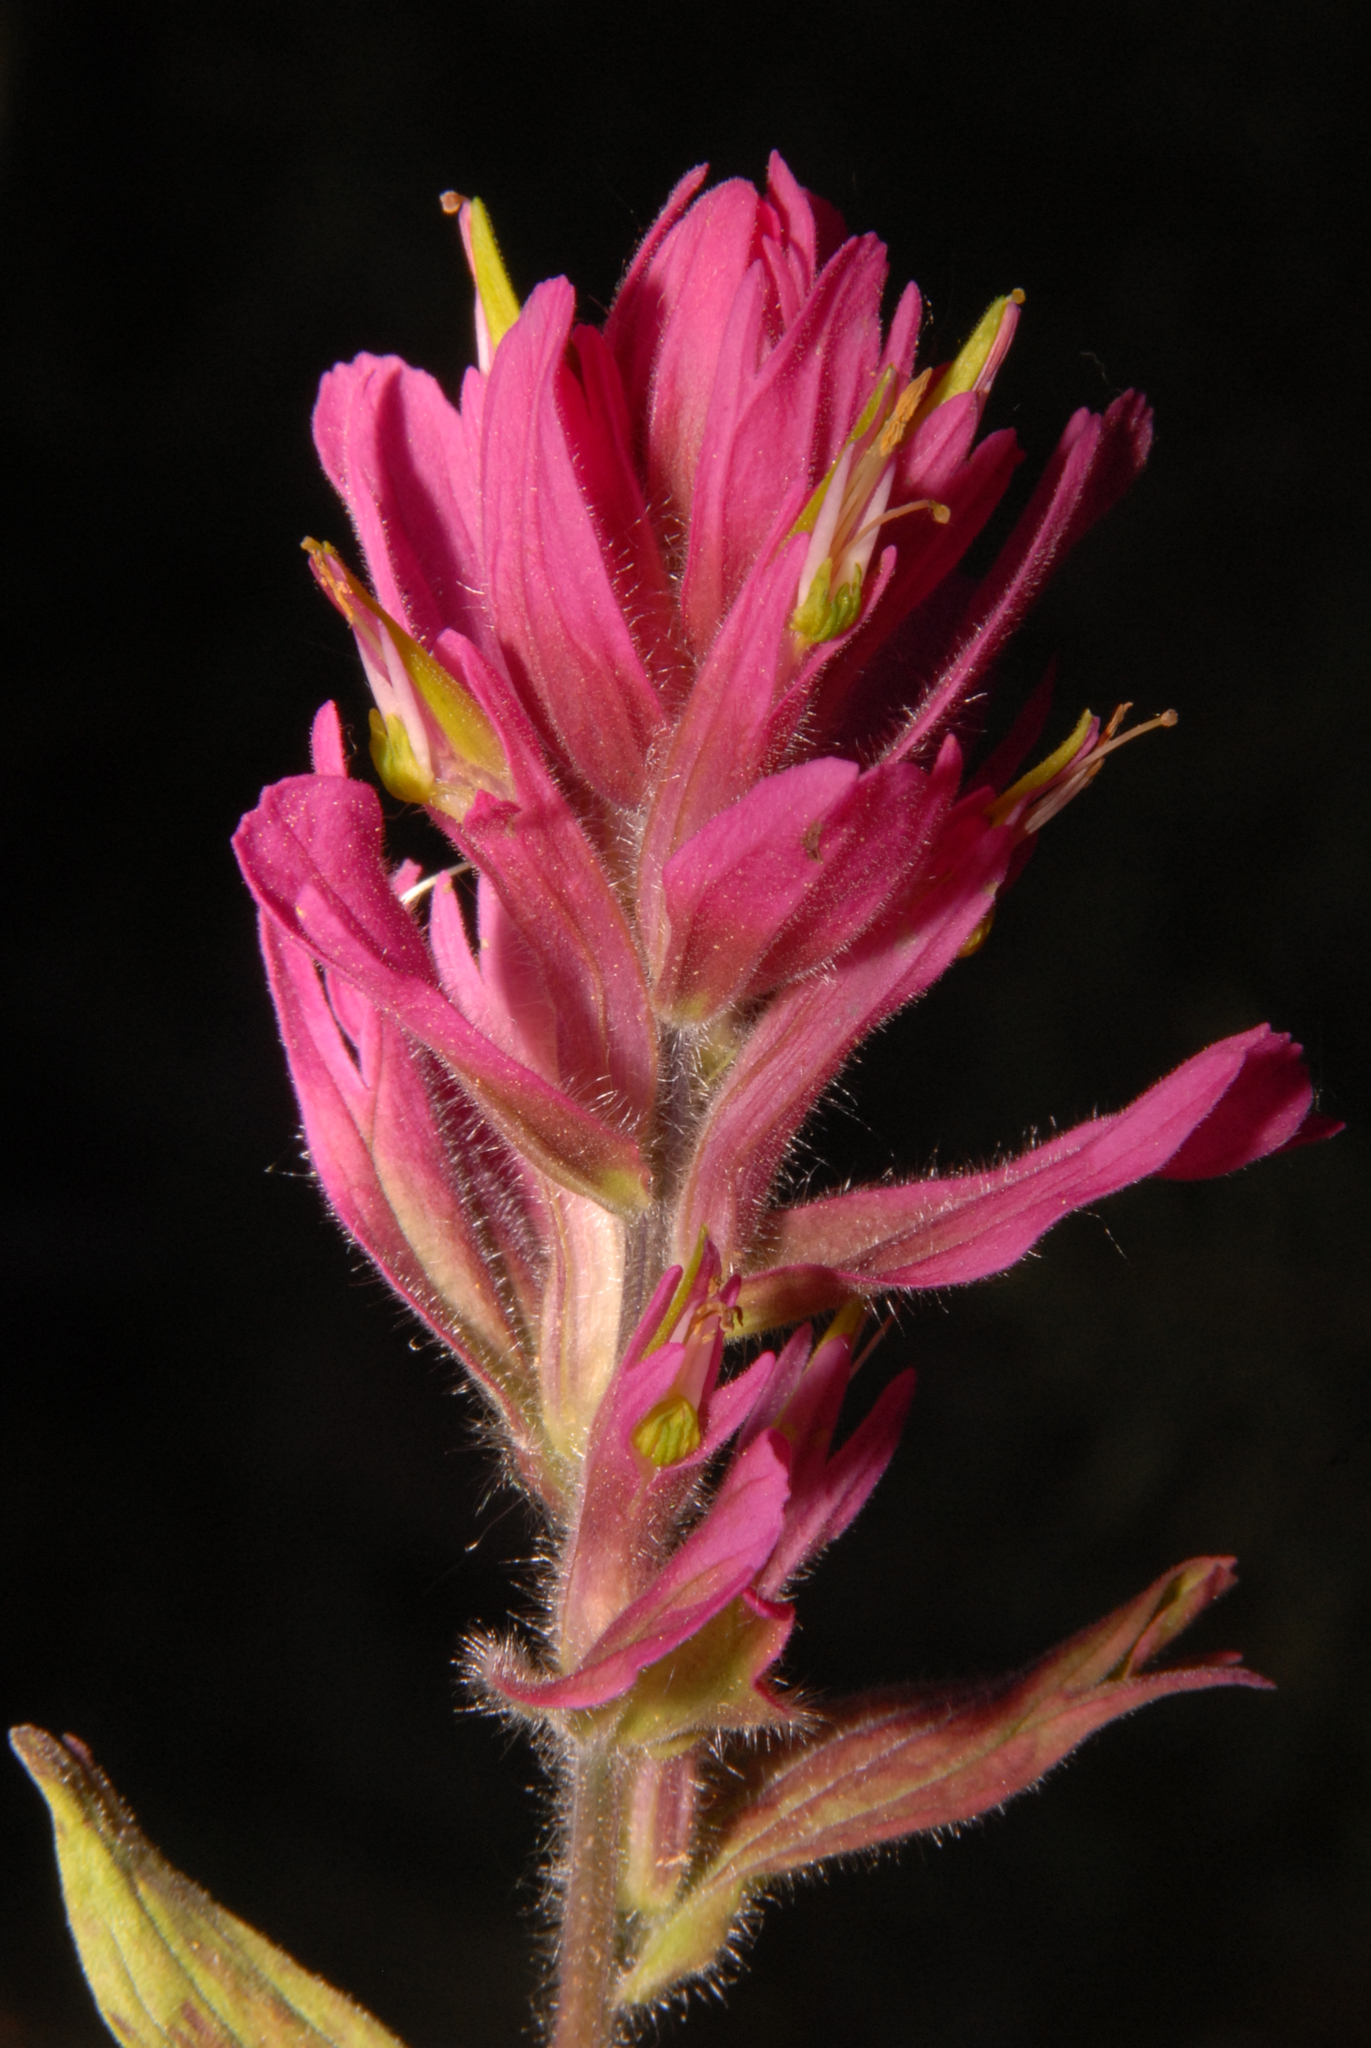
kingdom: Plantae
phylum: Tracheophyta
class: Magnoliopsida
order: Lamiales
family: Orobanchaceae
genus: Castilleja
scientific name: Castilleja rhexifolia
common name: Rocky mountain paintbrush
